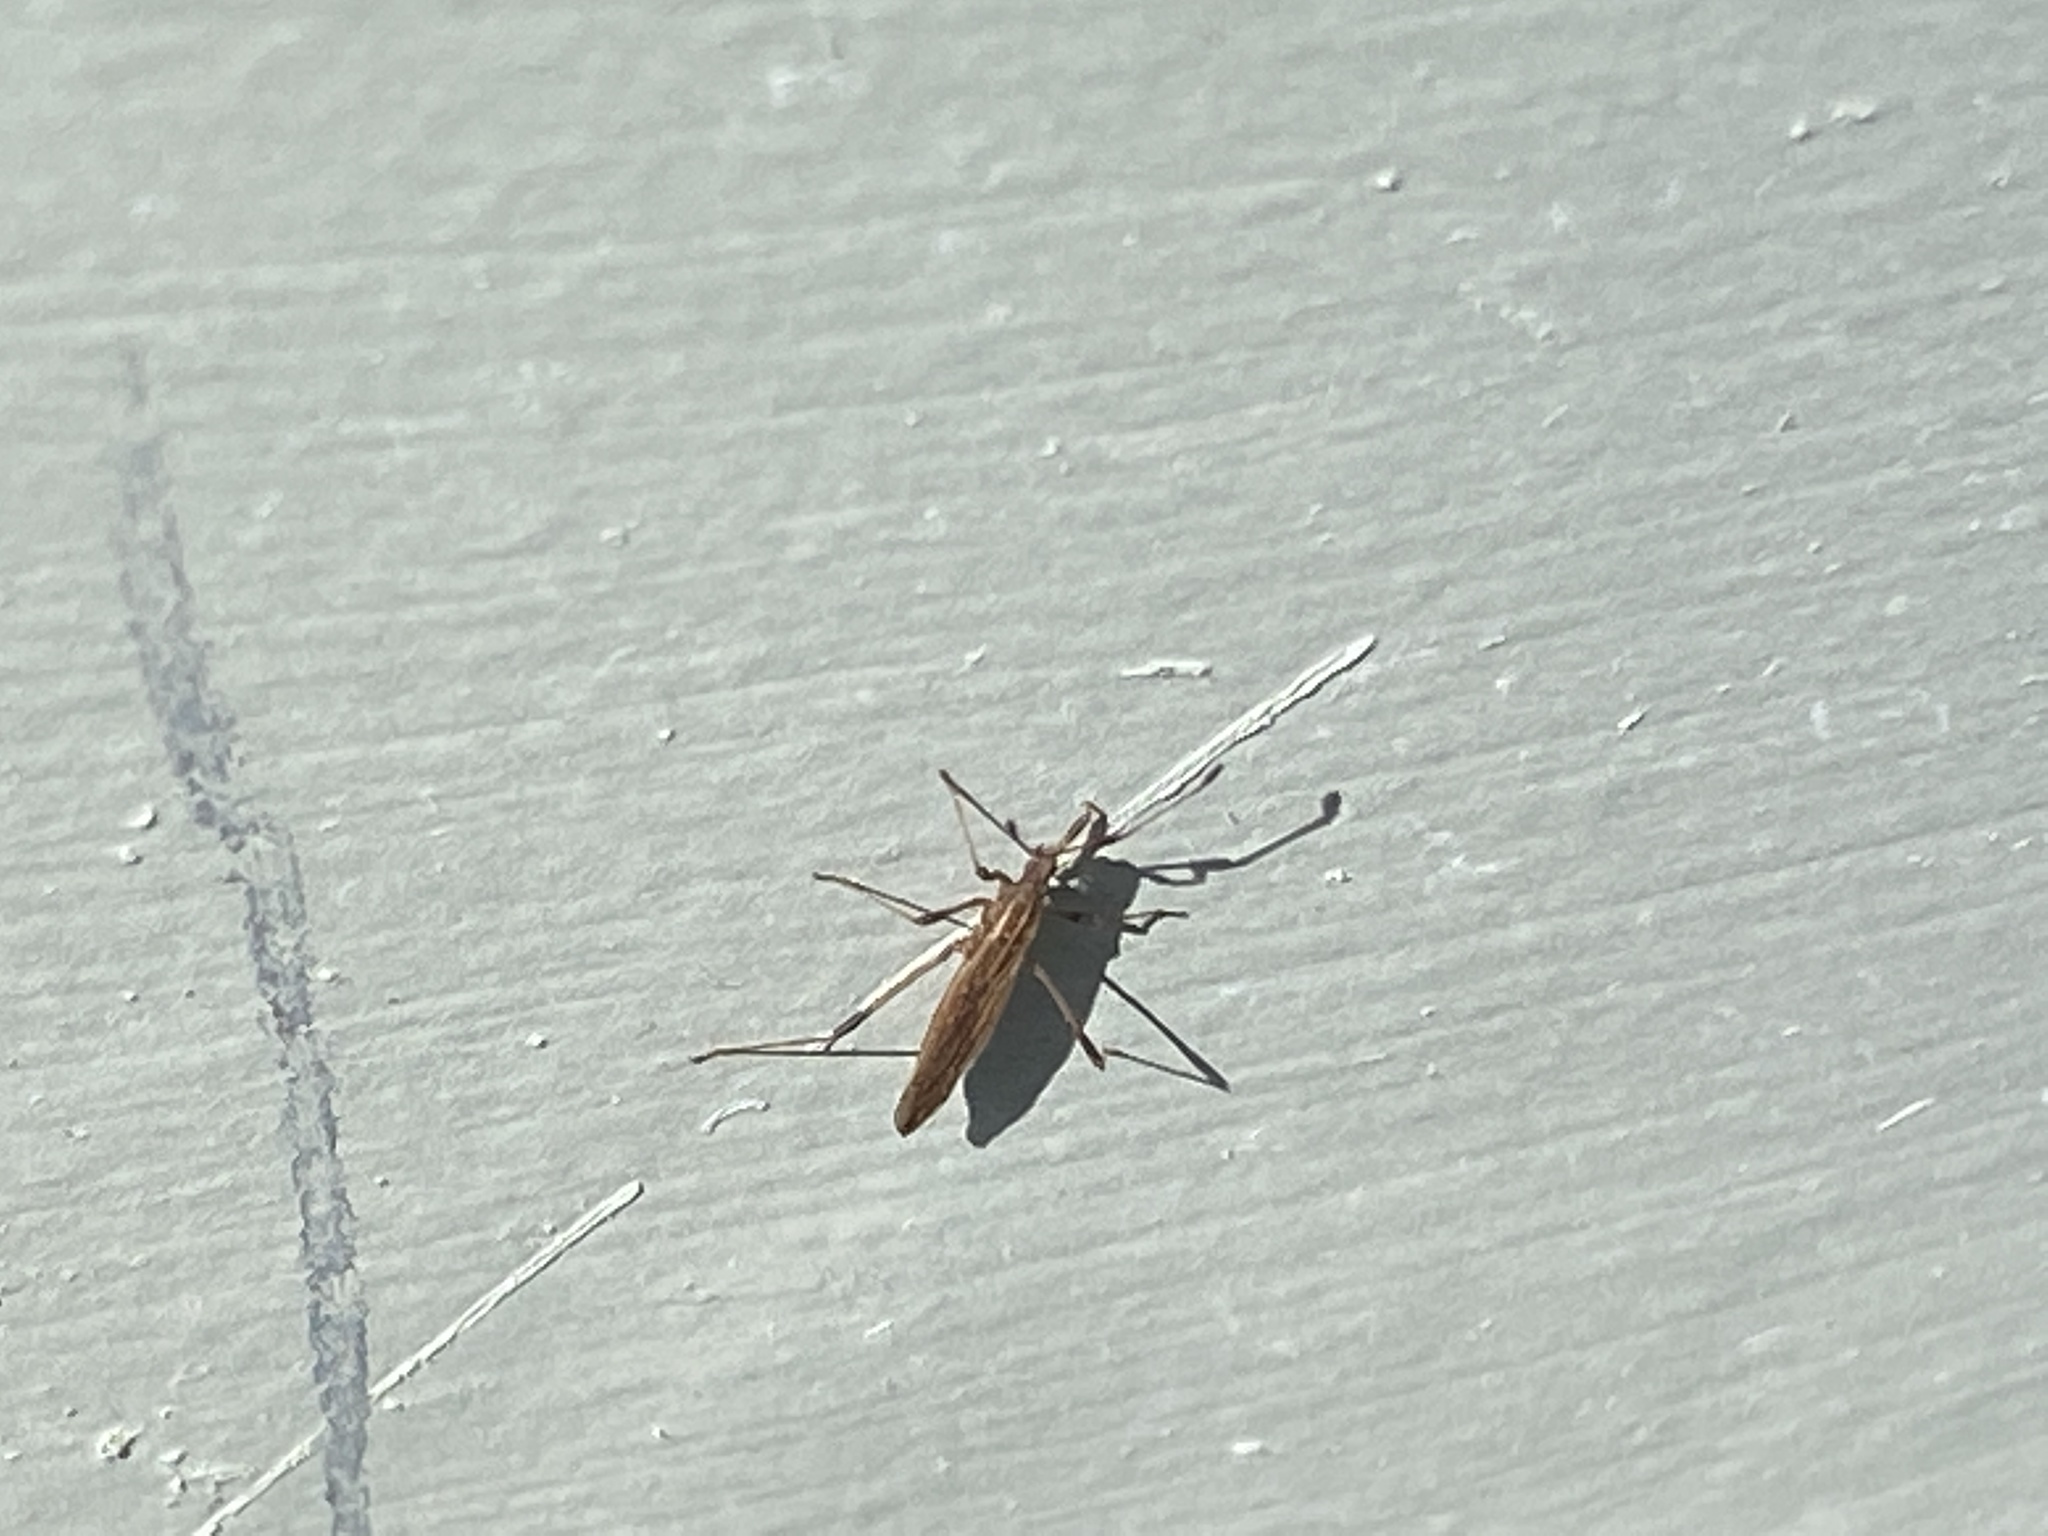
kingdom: Animalia
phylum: Arthropoda
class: Insecta
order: Hemiptera
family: Berytidae
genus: Berytinus
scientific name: Berytinus minor
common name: Stilt bug
